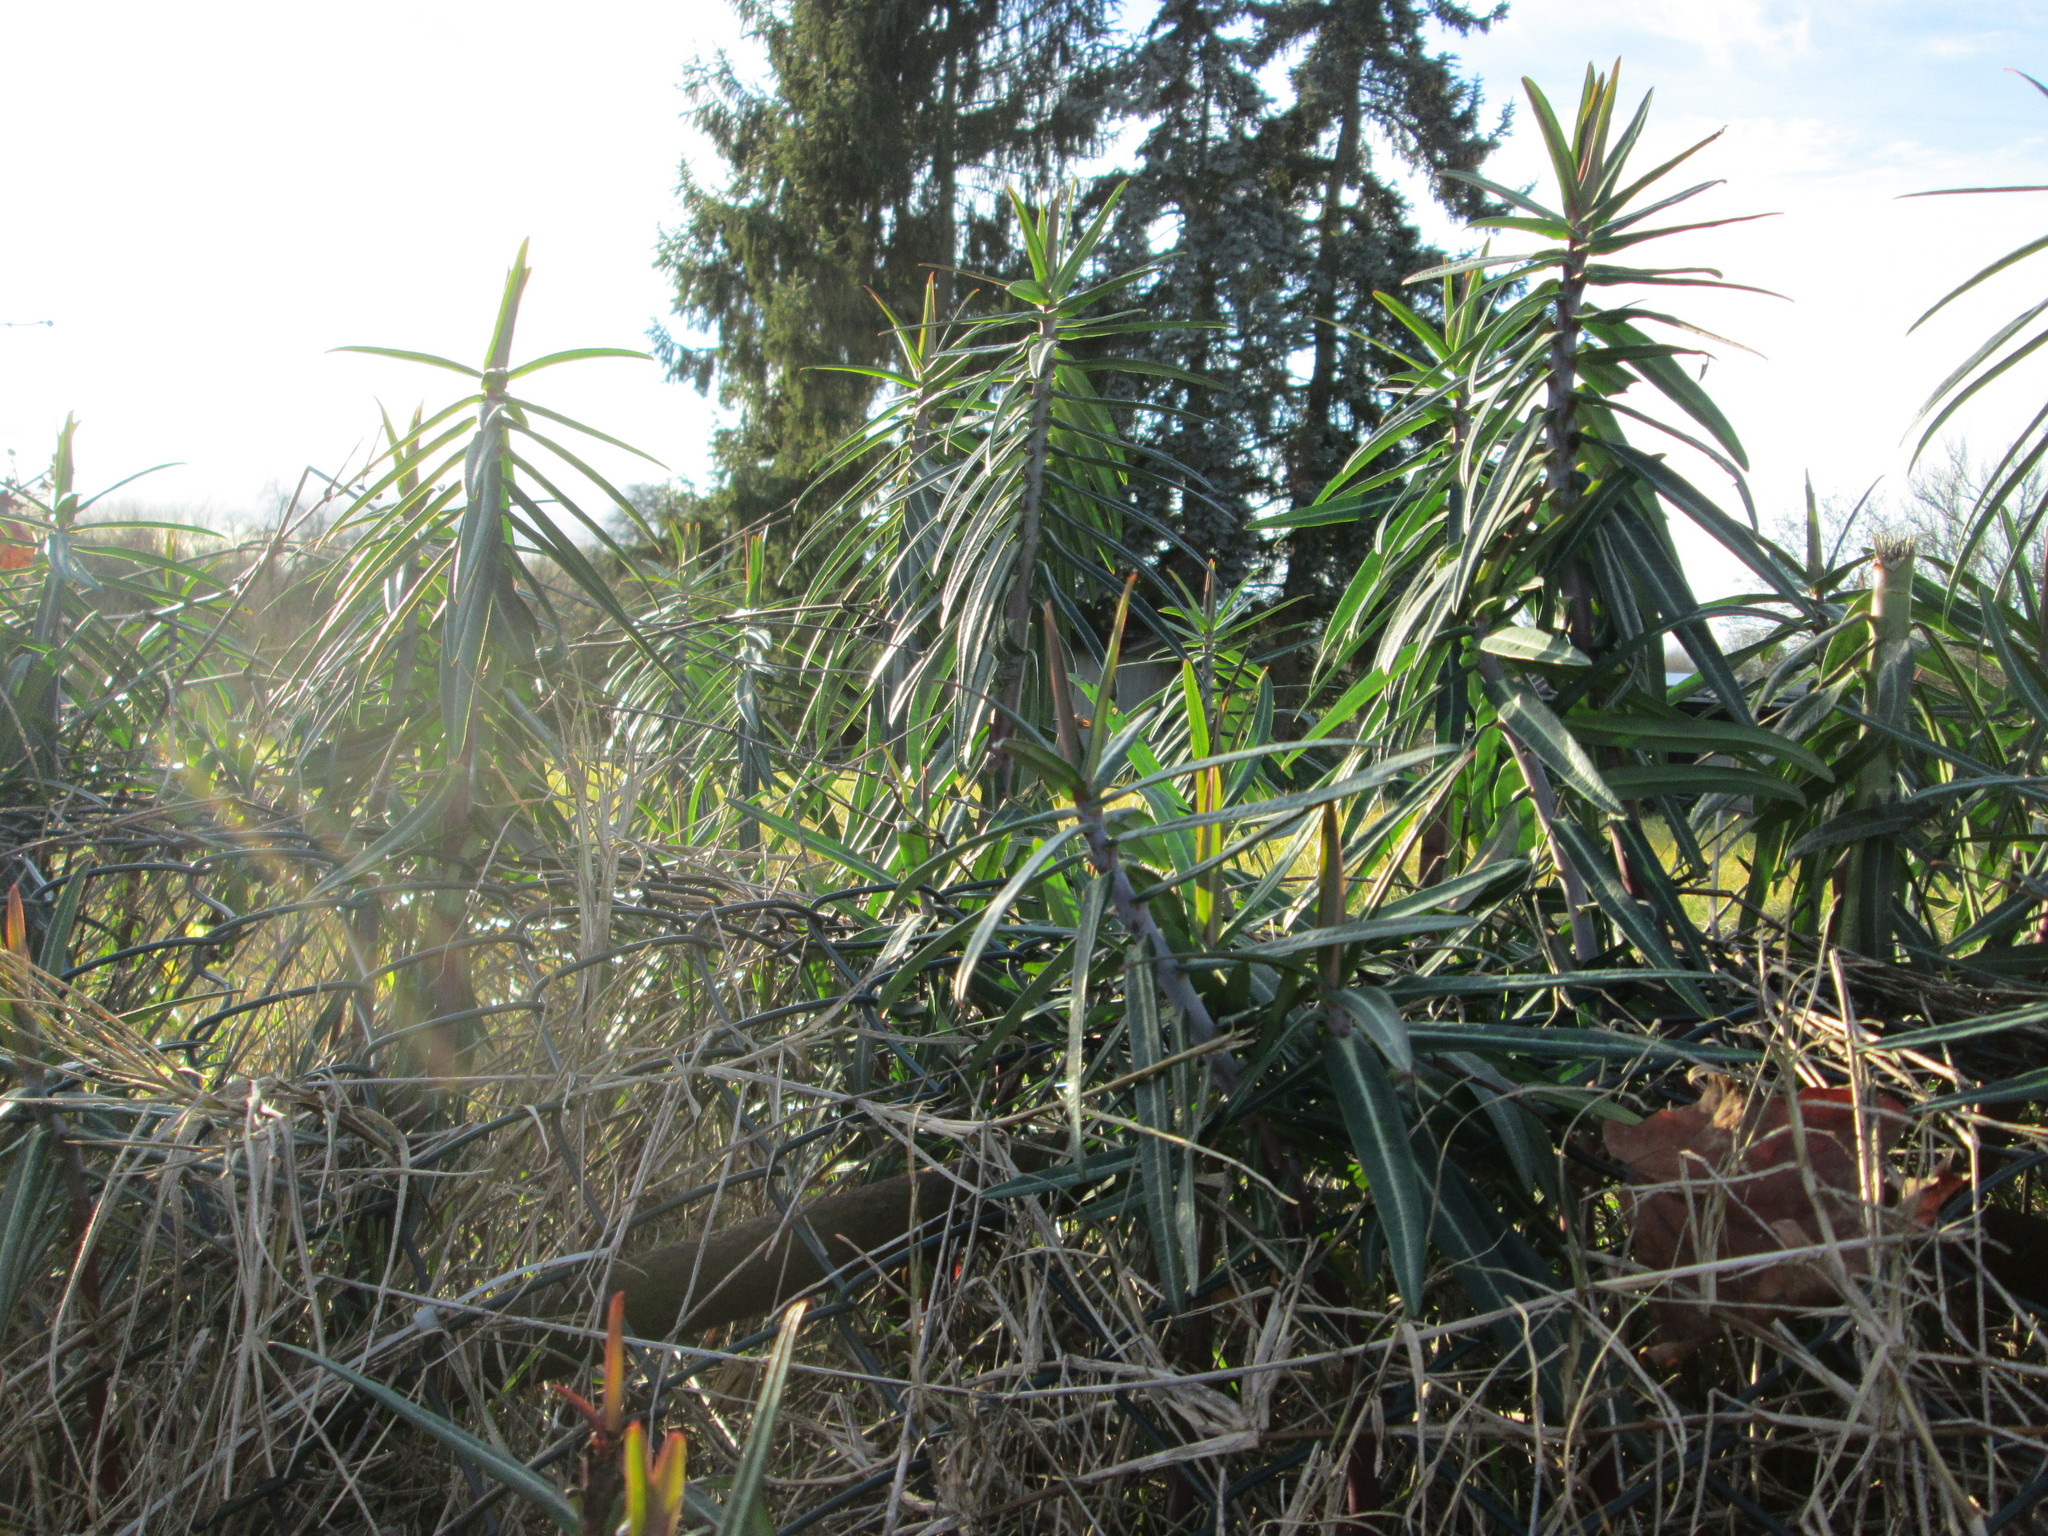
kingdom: Plantae
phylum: Tracheophyta
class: Magnoliopsida
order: Malpighiales
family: Euphorbiaceae
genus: Euphorbia
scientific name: Euphorbia lathyris
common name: Caper spurge
